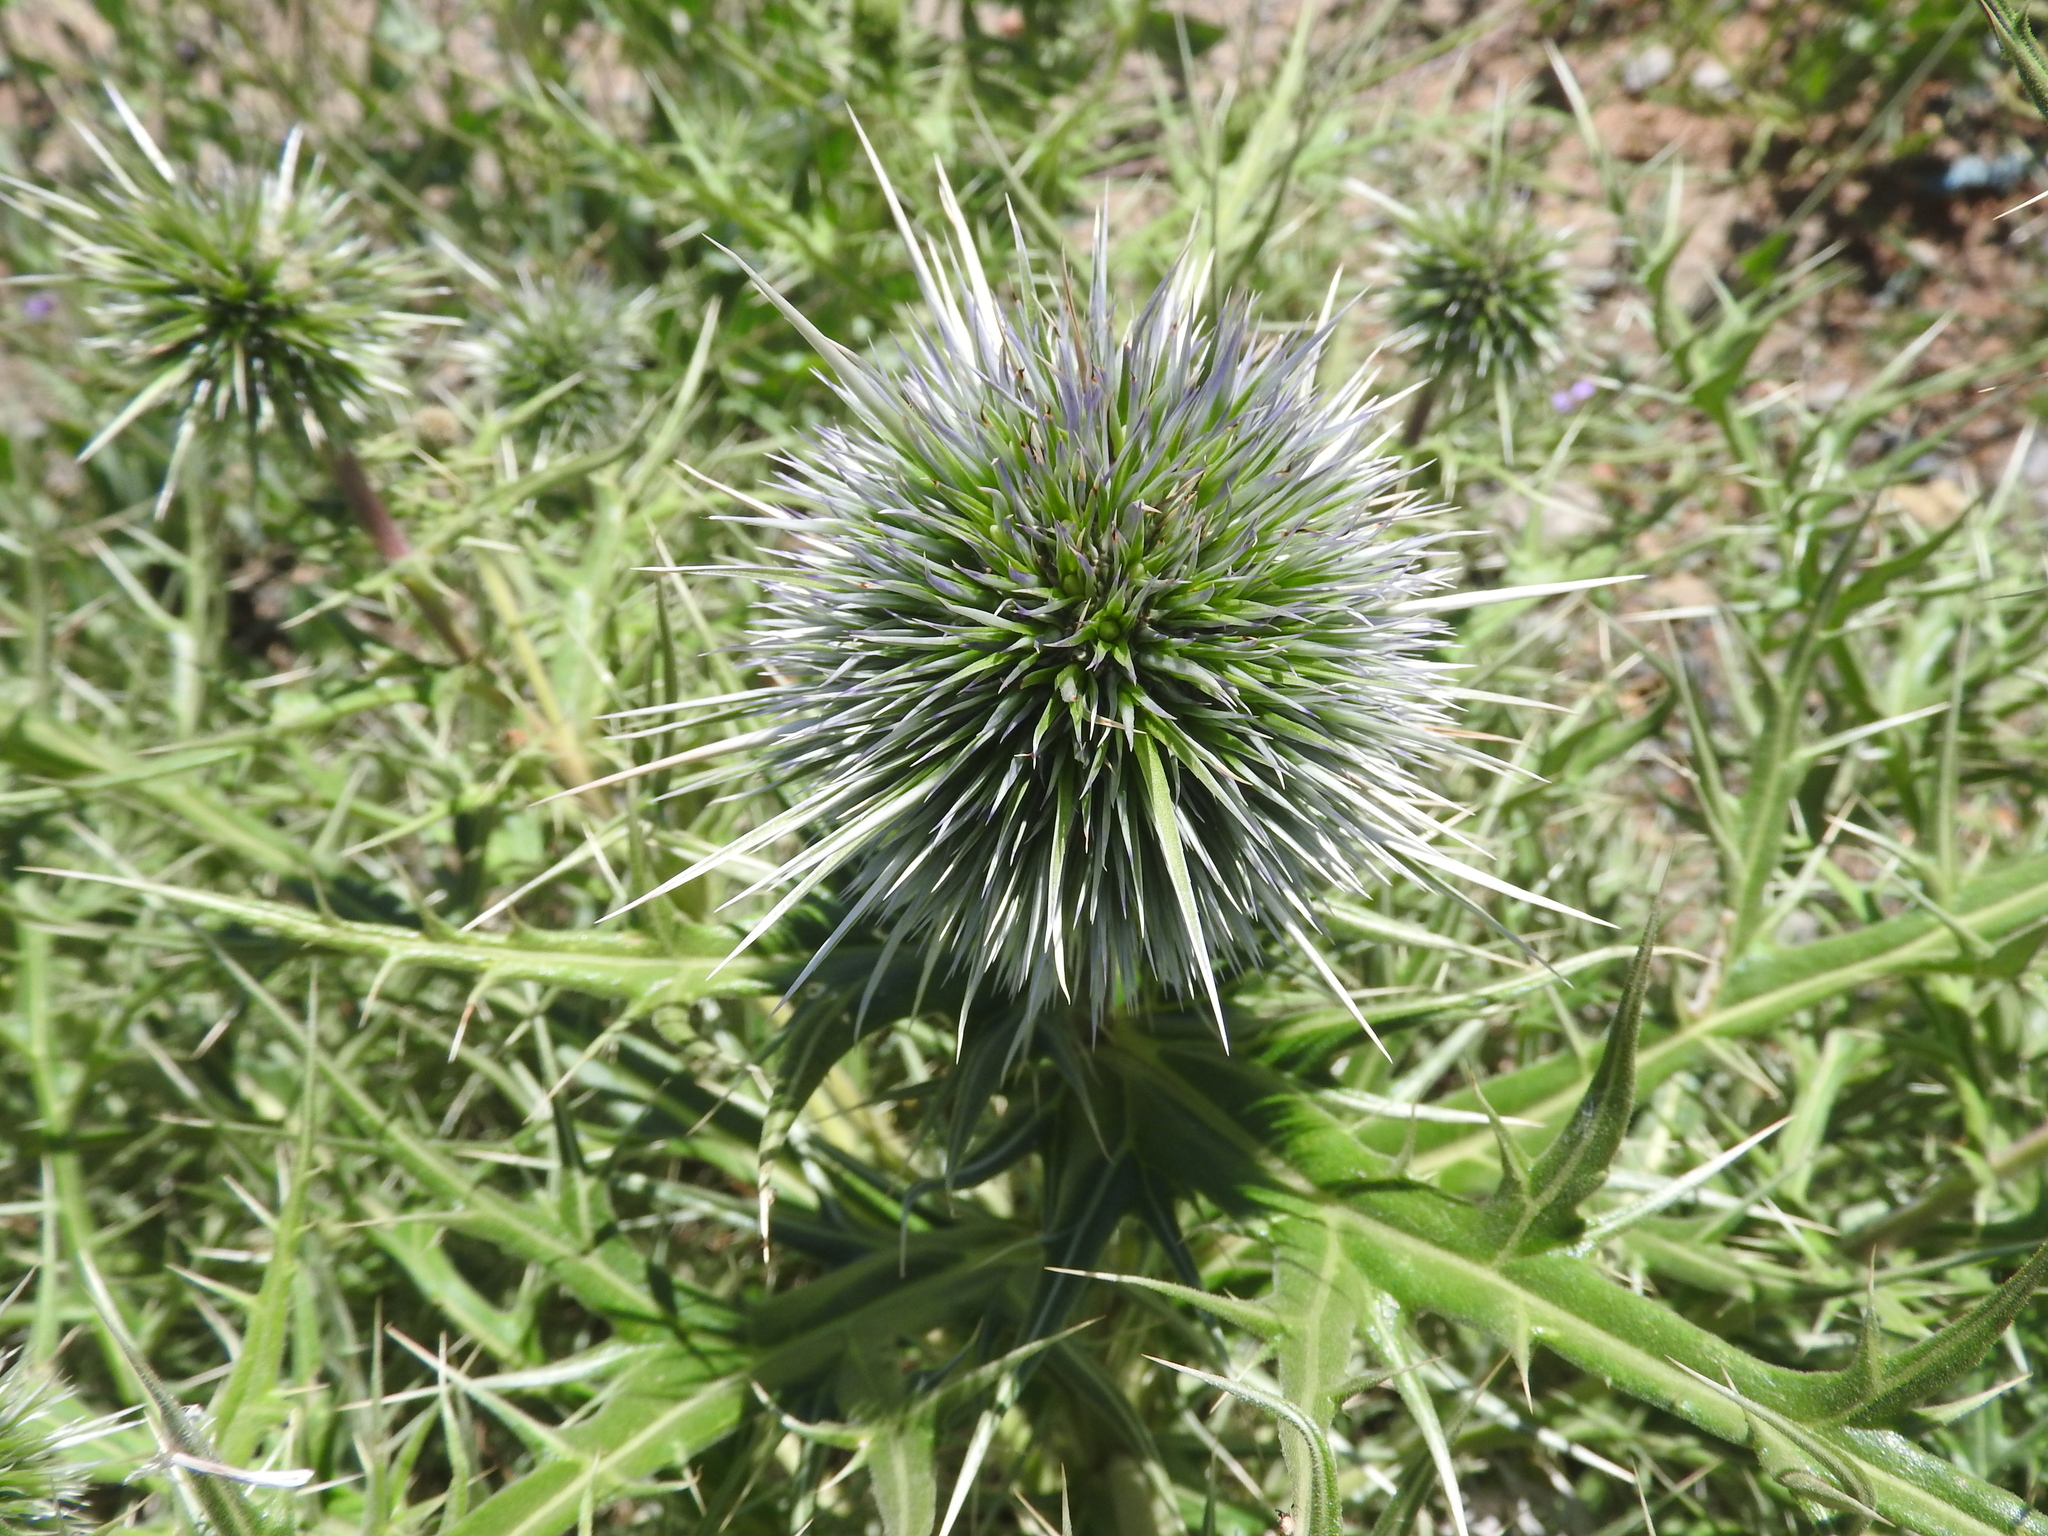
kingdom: Plantae
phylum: Tracheophyta
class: Magnoliopsida
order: Asterales
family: Asteraceae
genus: Echinops
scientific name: Echinops
